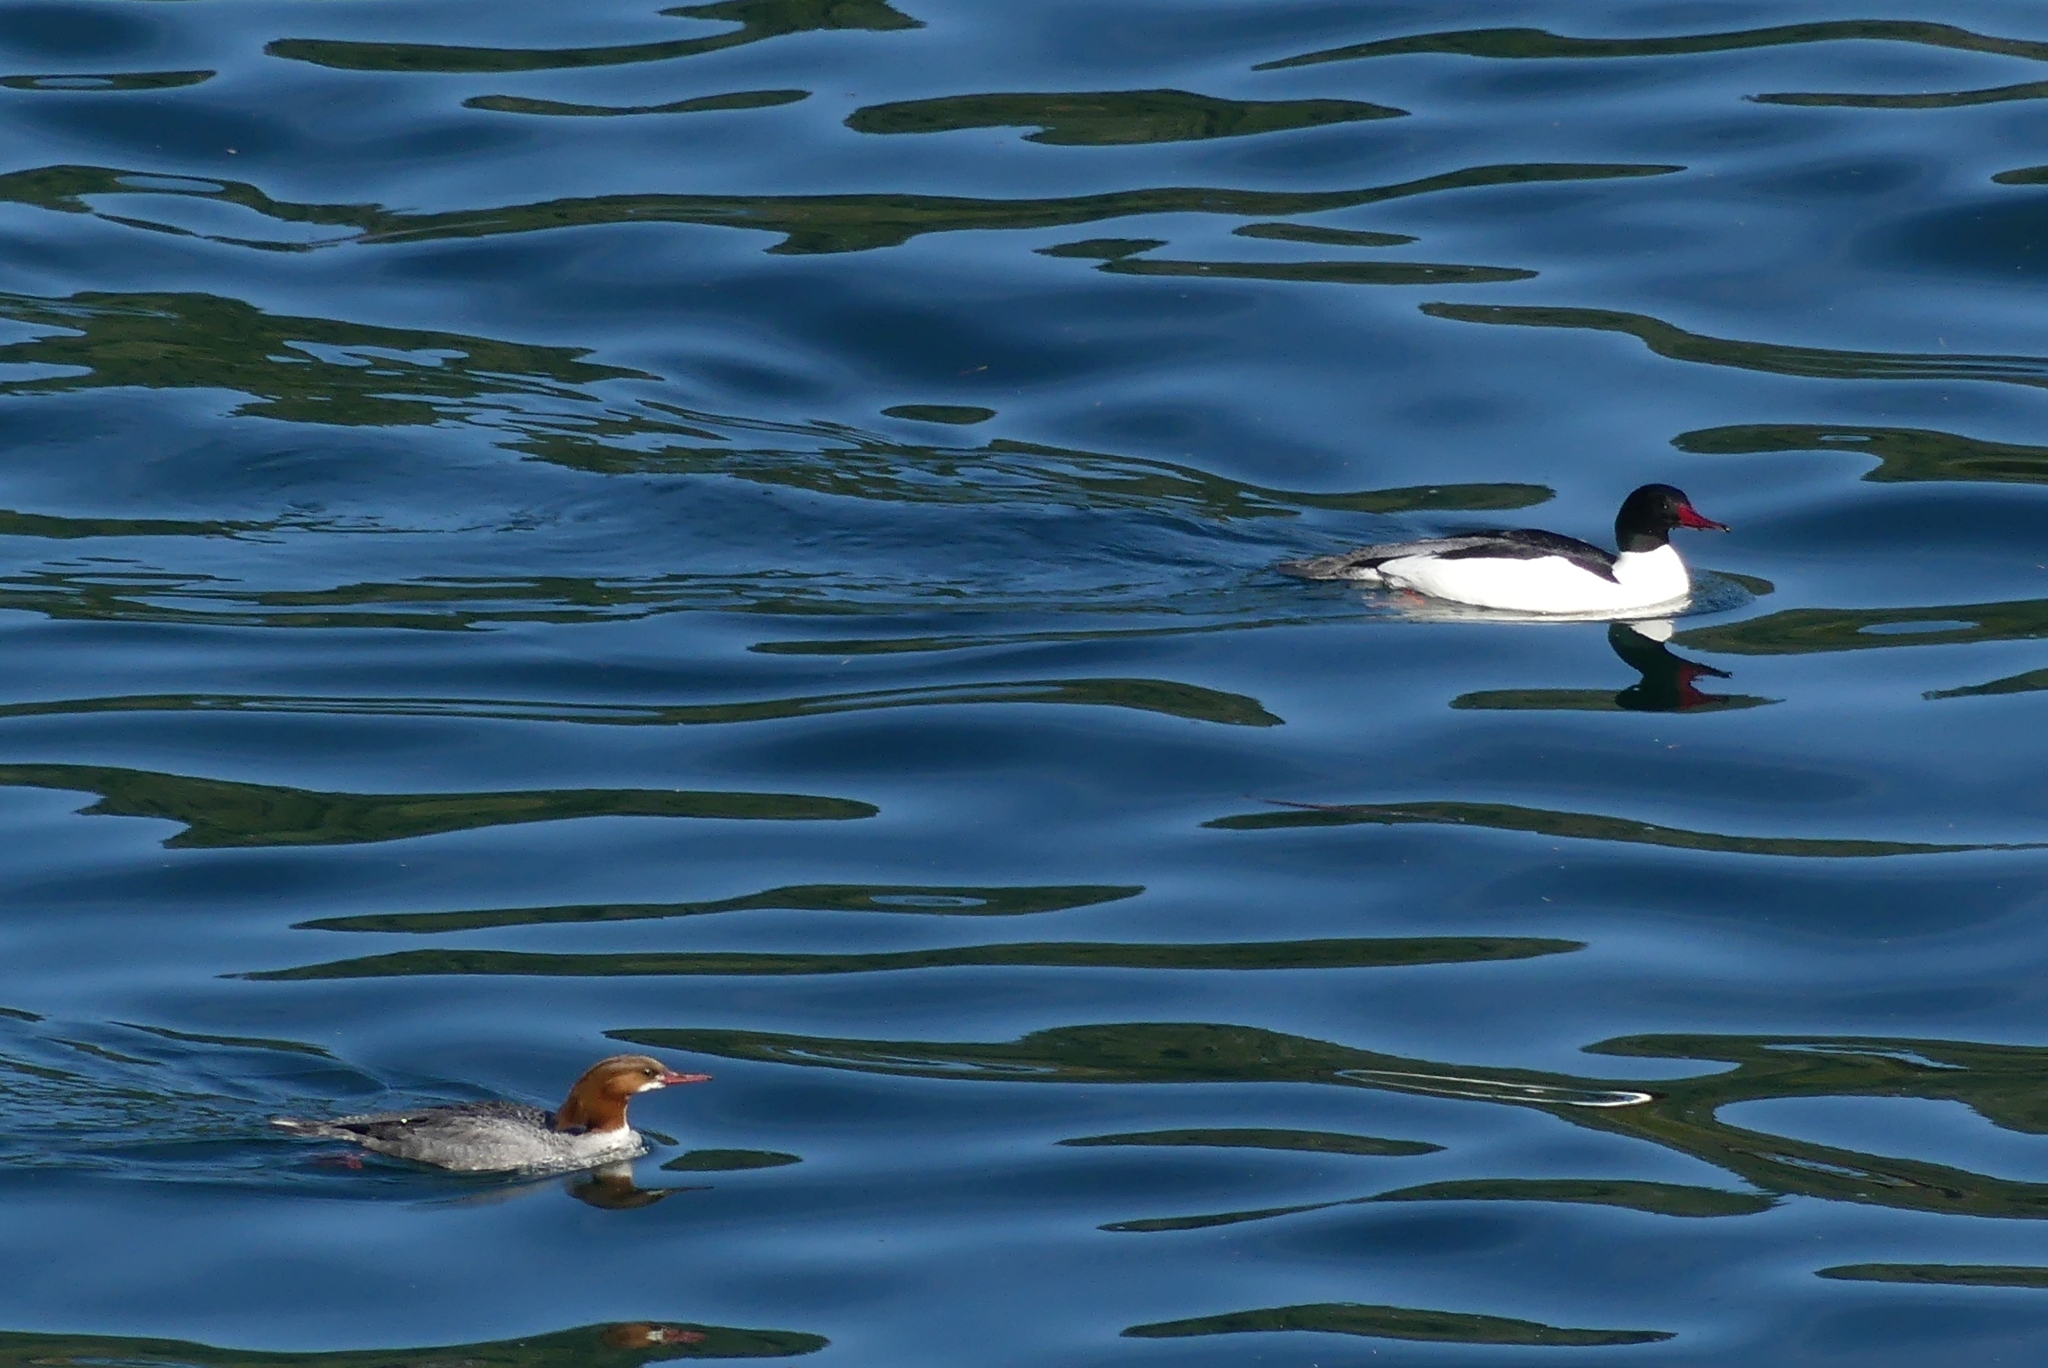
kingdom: Animalia
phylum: Chordata
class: Aves
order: Anseriformes
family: Anatidae
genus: Mergus
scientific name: Mergus merganser
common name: Common merganser
